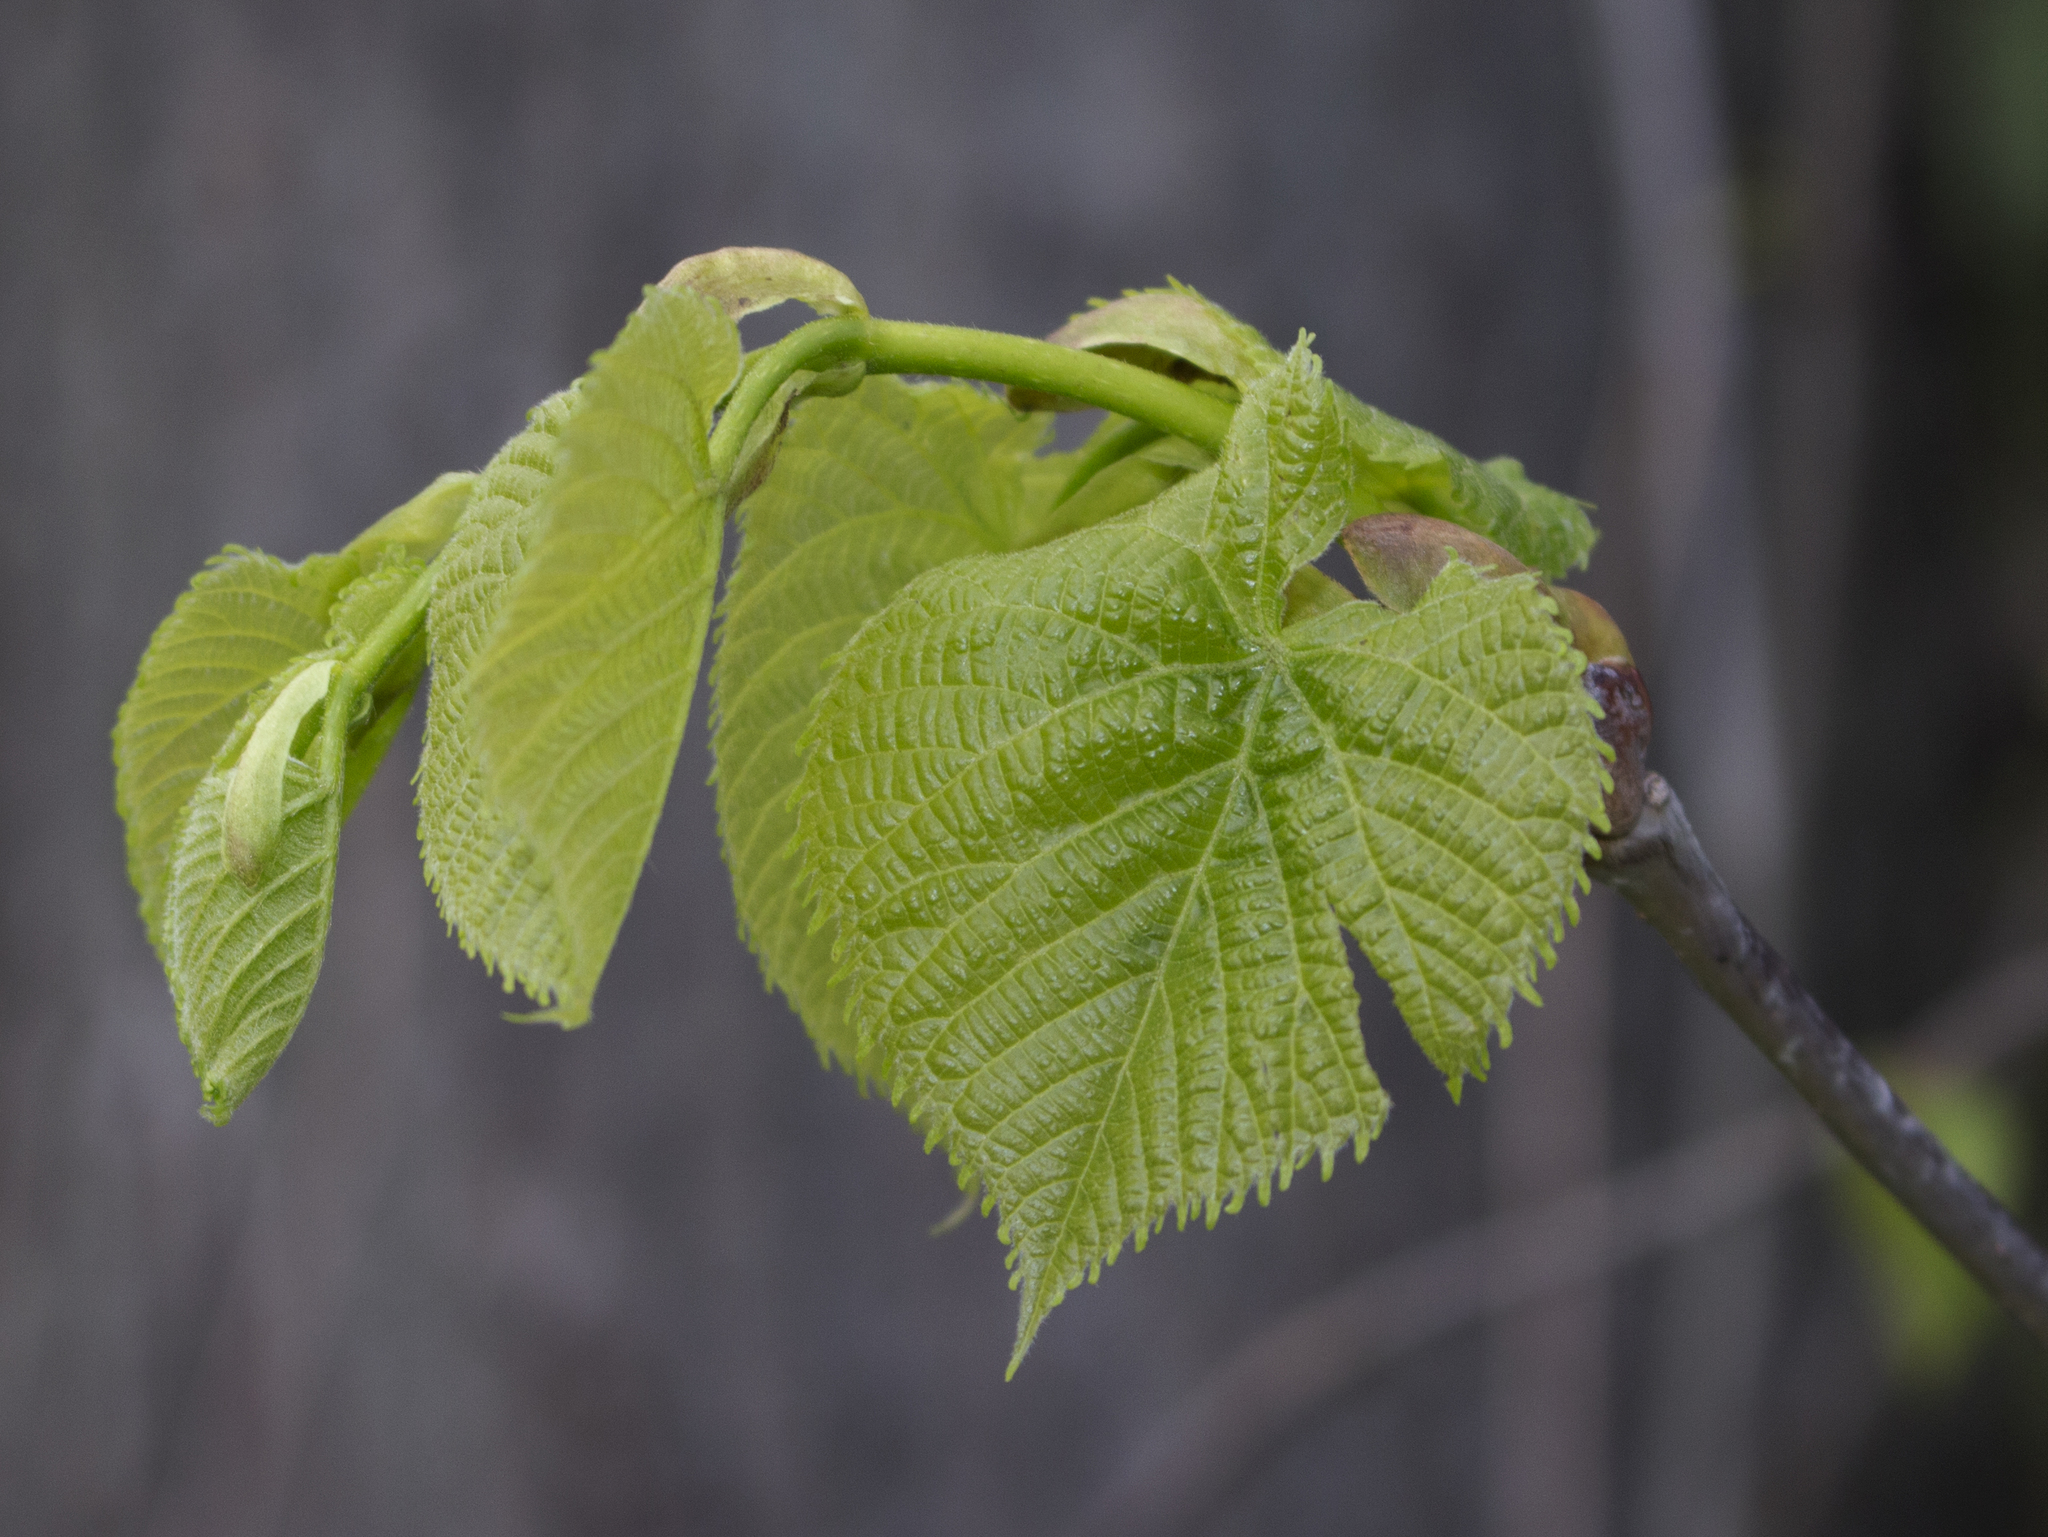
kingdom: Plantae
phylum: Tracheophyta
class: Magnoliopsida
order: Malvales
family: Malvaceae
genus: Tilia
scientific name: Tilia americana
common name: Basswood
